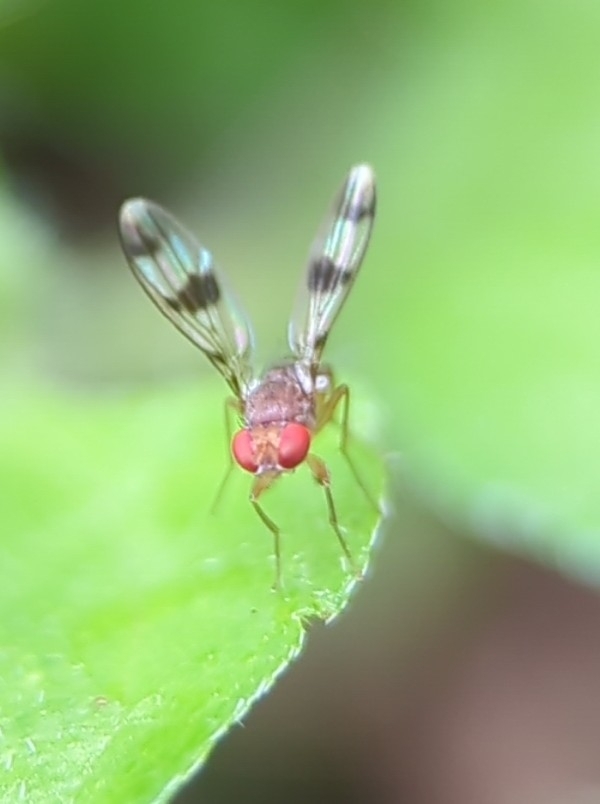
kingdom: Animalia
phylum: Arthropoda
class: Insecta
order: Diptera
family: Drosophilidae
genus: Chymomyza
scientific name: Chymomyza amoena
